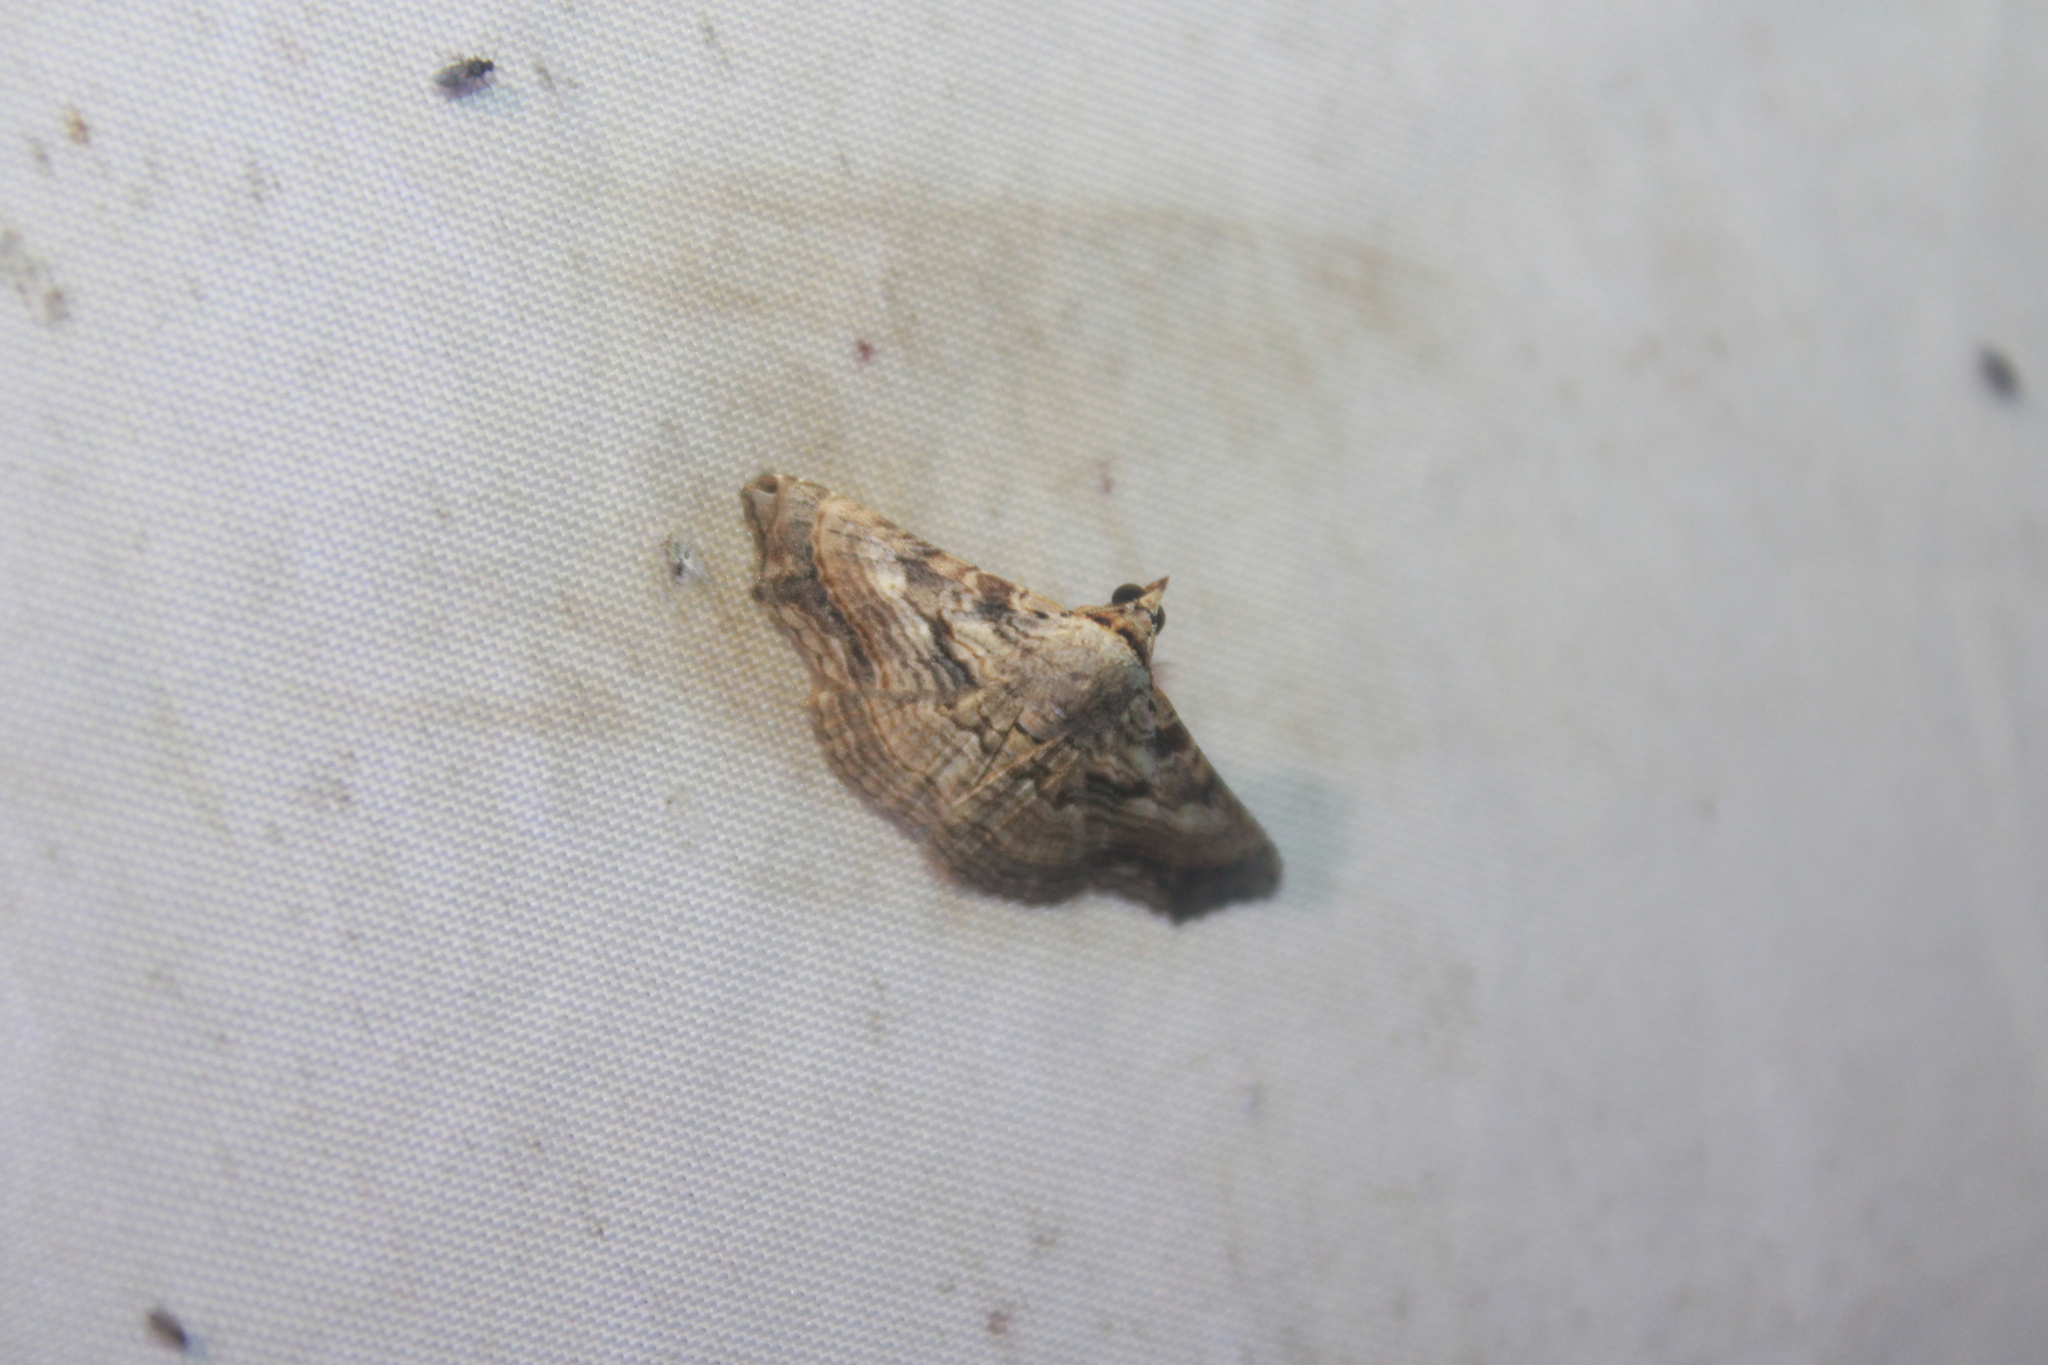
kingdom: Animalia
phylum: Arthropoda
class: Insecta
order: Lepidoptera
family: Erebidae
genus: Tyrissa
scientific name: Tyrissa multilinea
